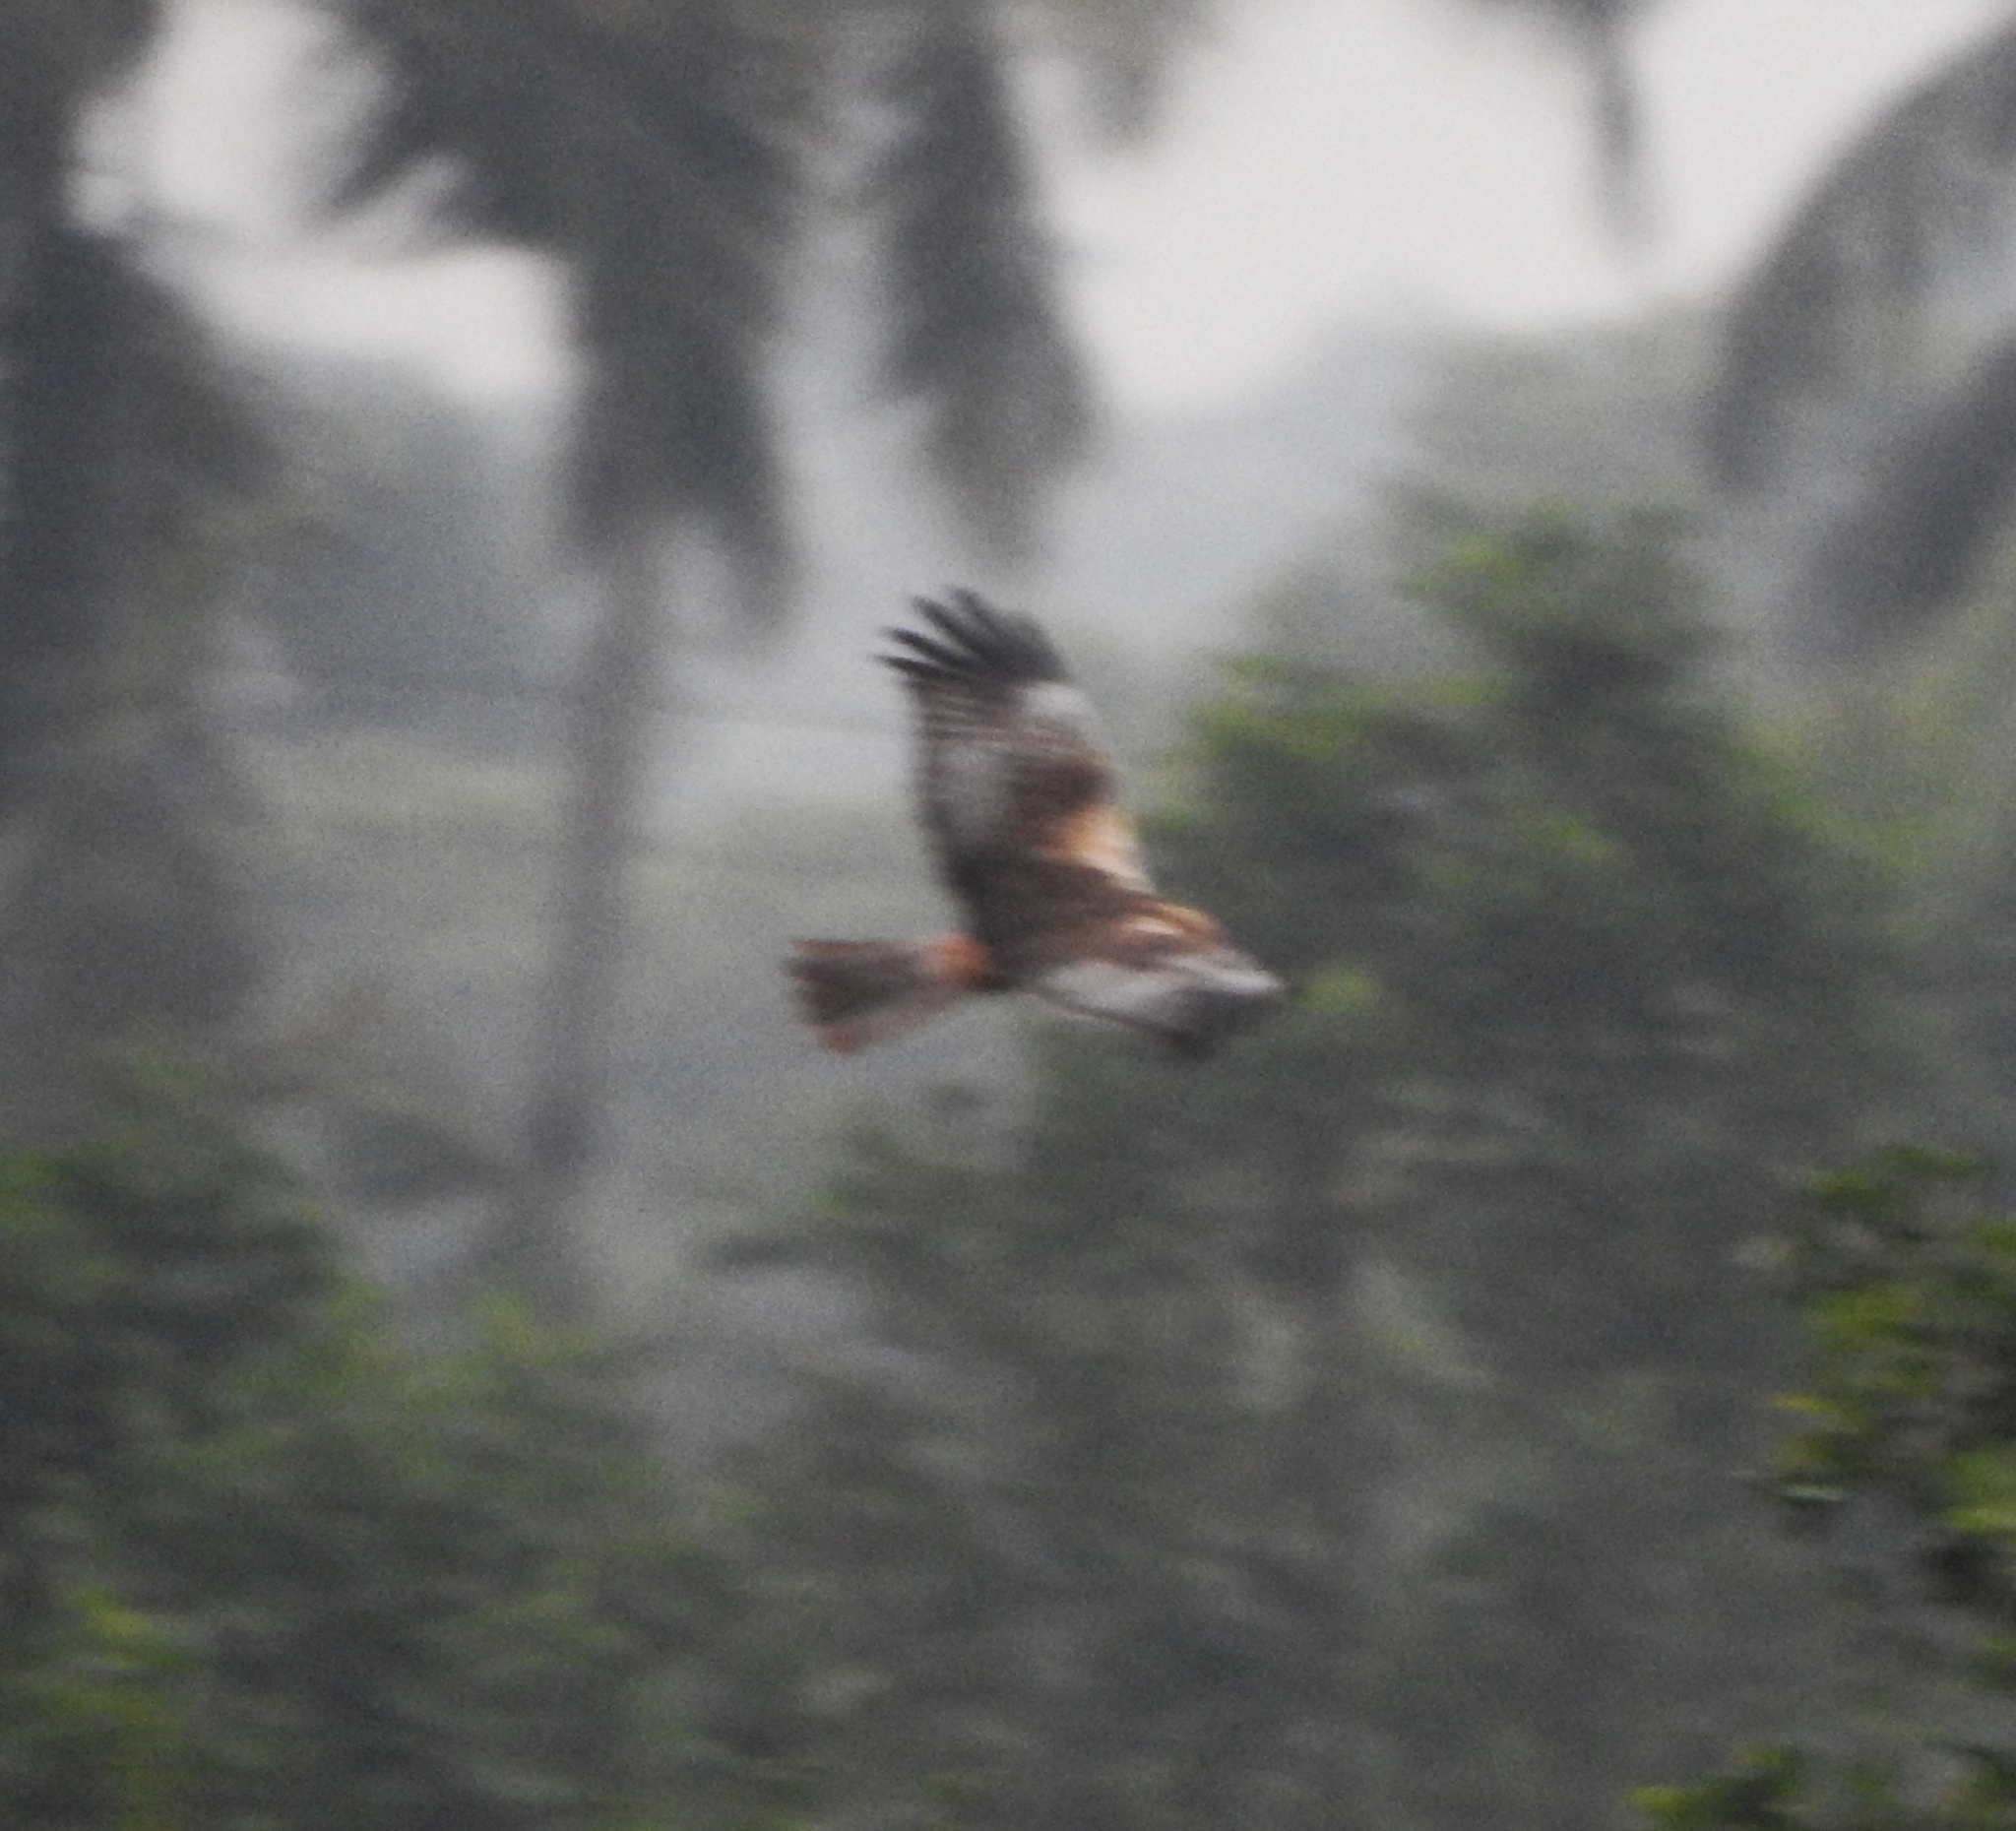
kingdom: Animalia
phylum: Chordata
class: Aves
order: Accipitriformes
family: Accipitridae
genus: Circus
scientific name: Circus aeruginosus
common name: Western marsh harrier
